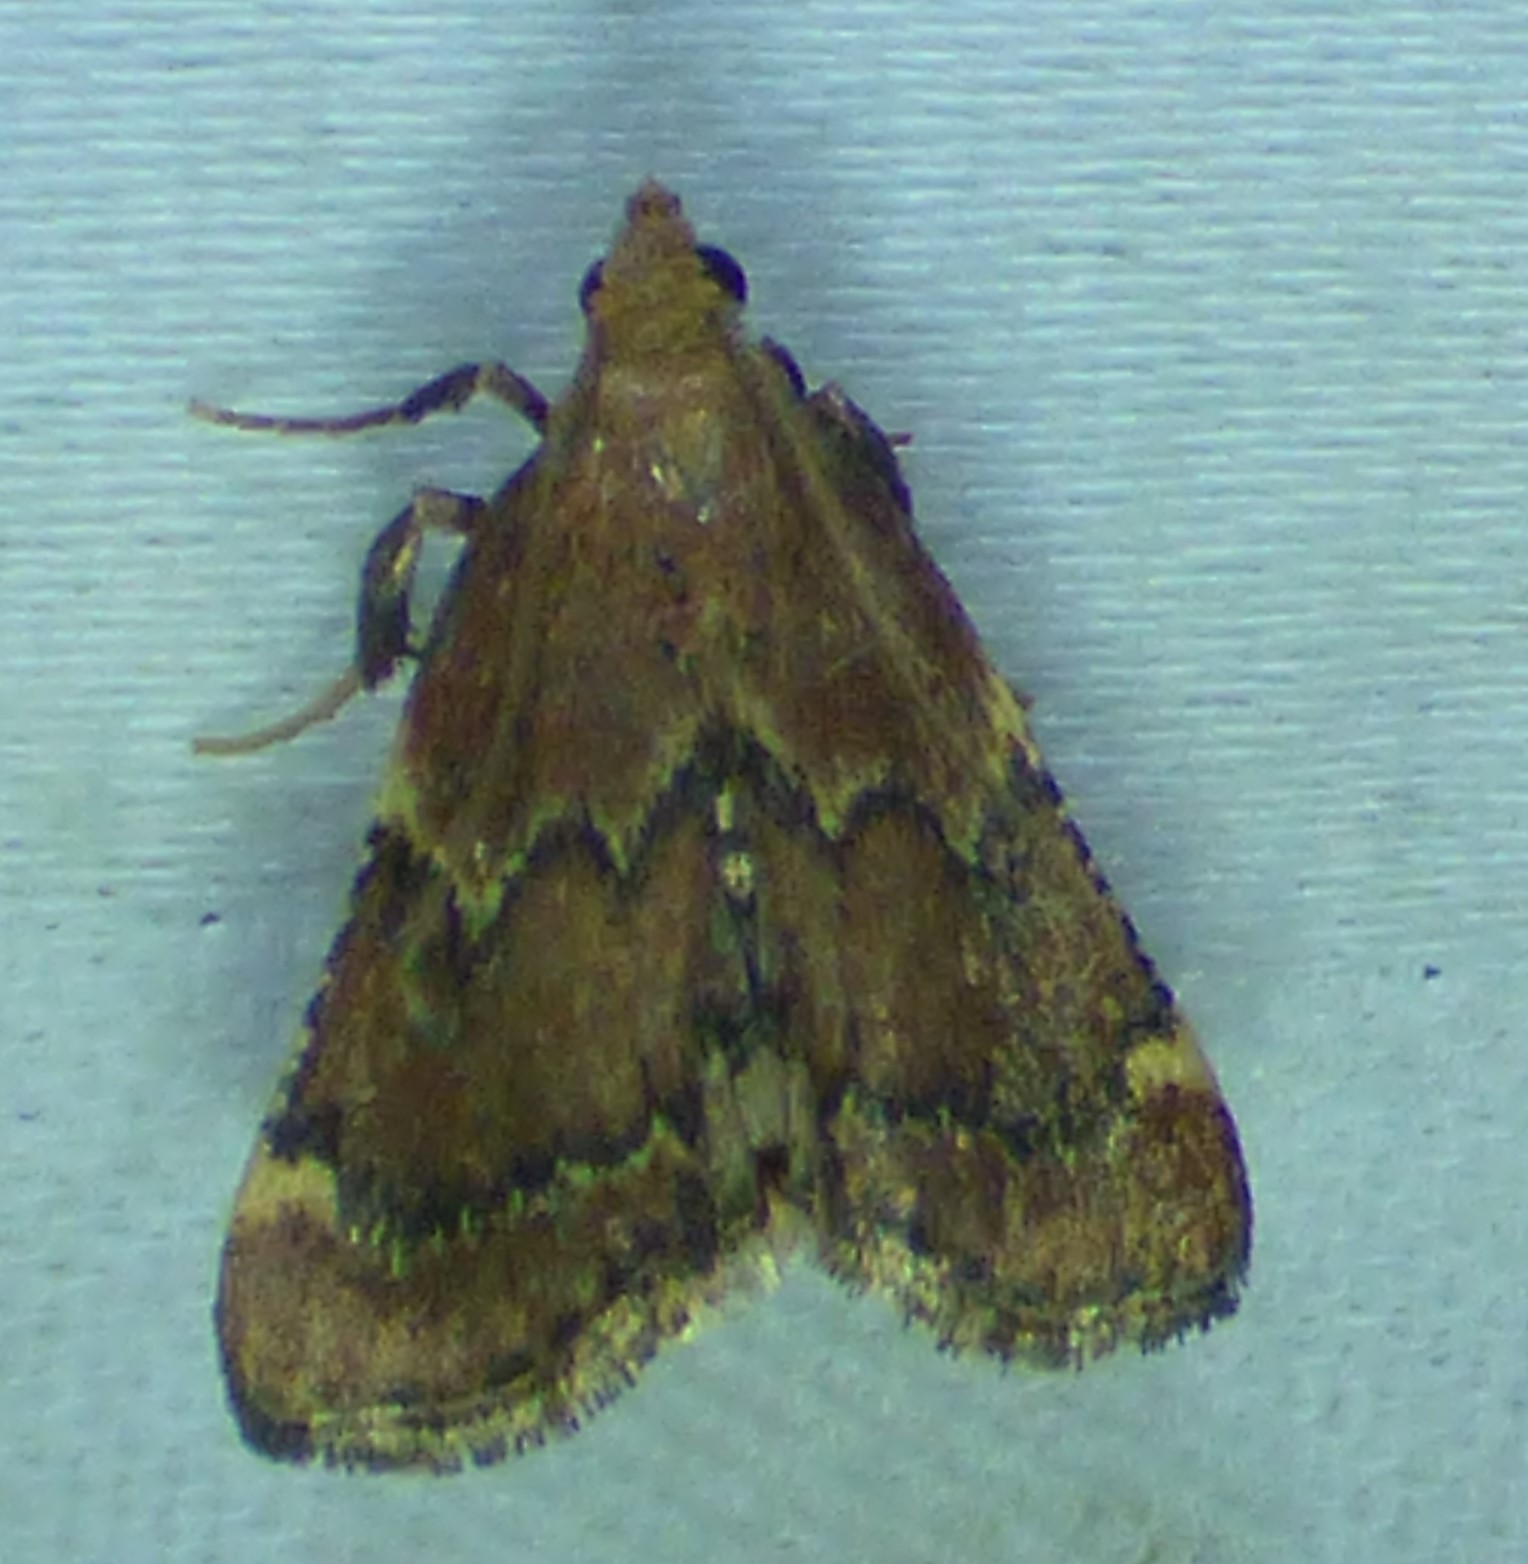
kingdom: Animalia
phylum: Arthropoda
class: Insecta
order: Lepidoptera
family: Pyralidae
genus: Hypsopygia
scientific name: Hypsopygia intermedialis
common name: Red-shawled moth
